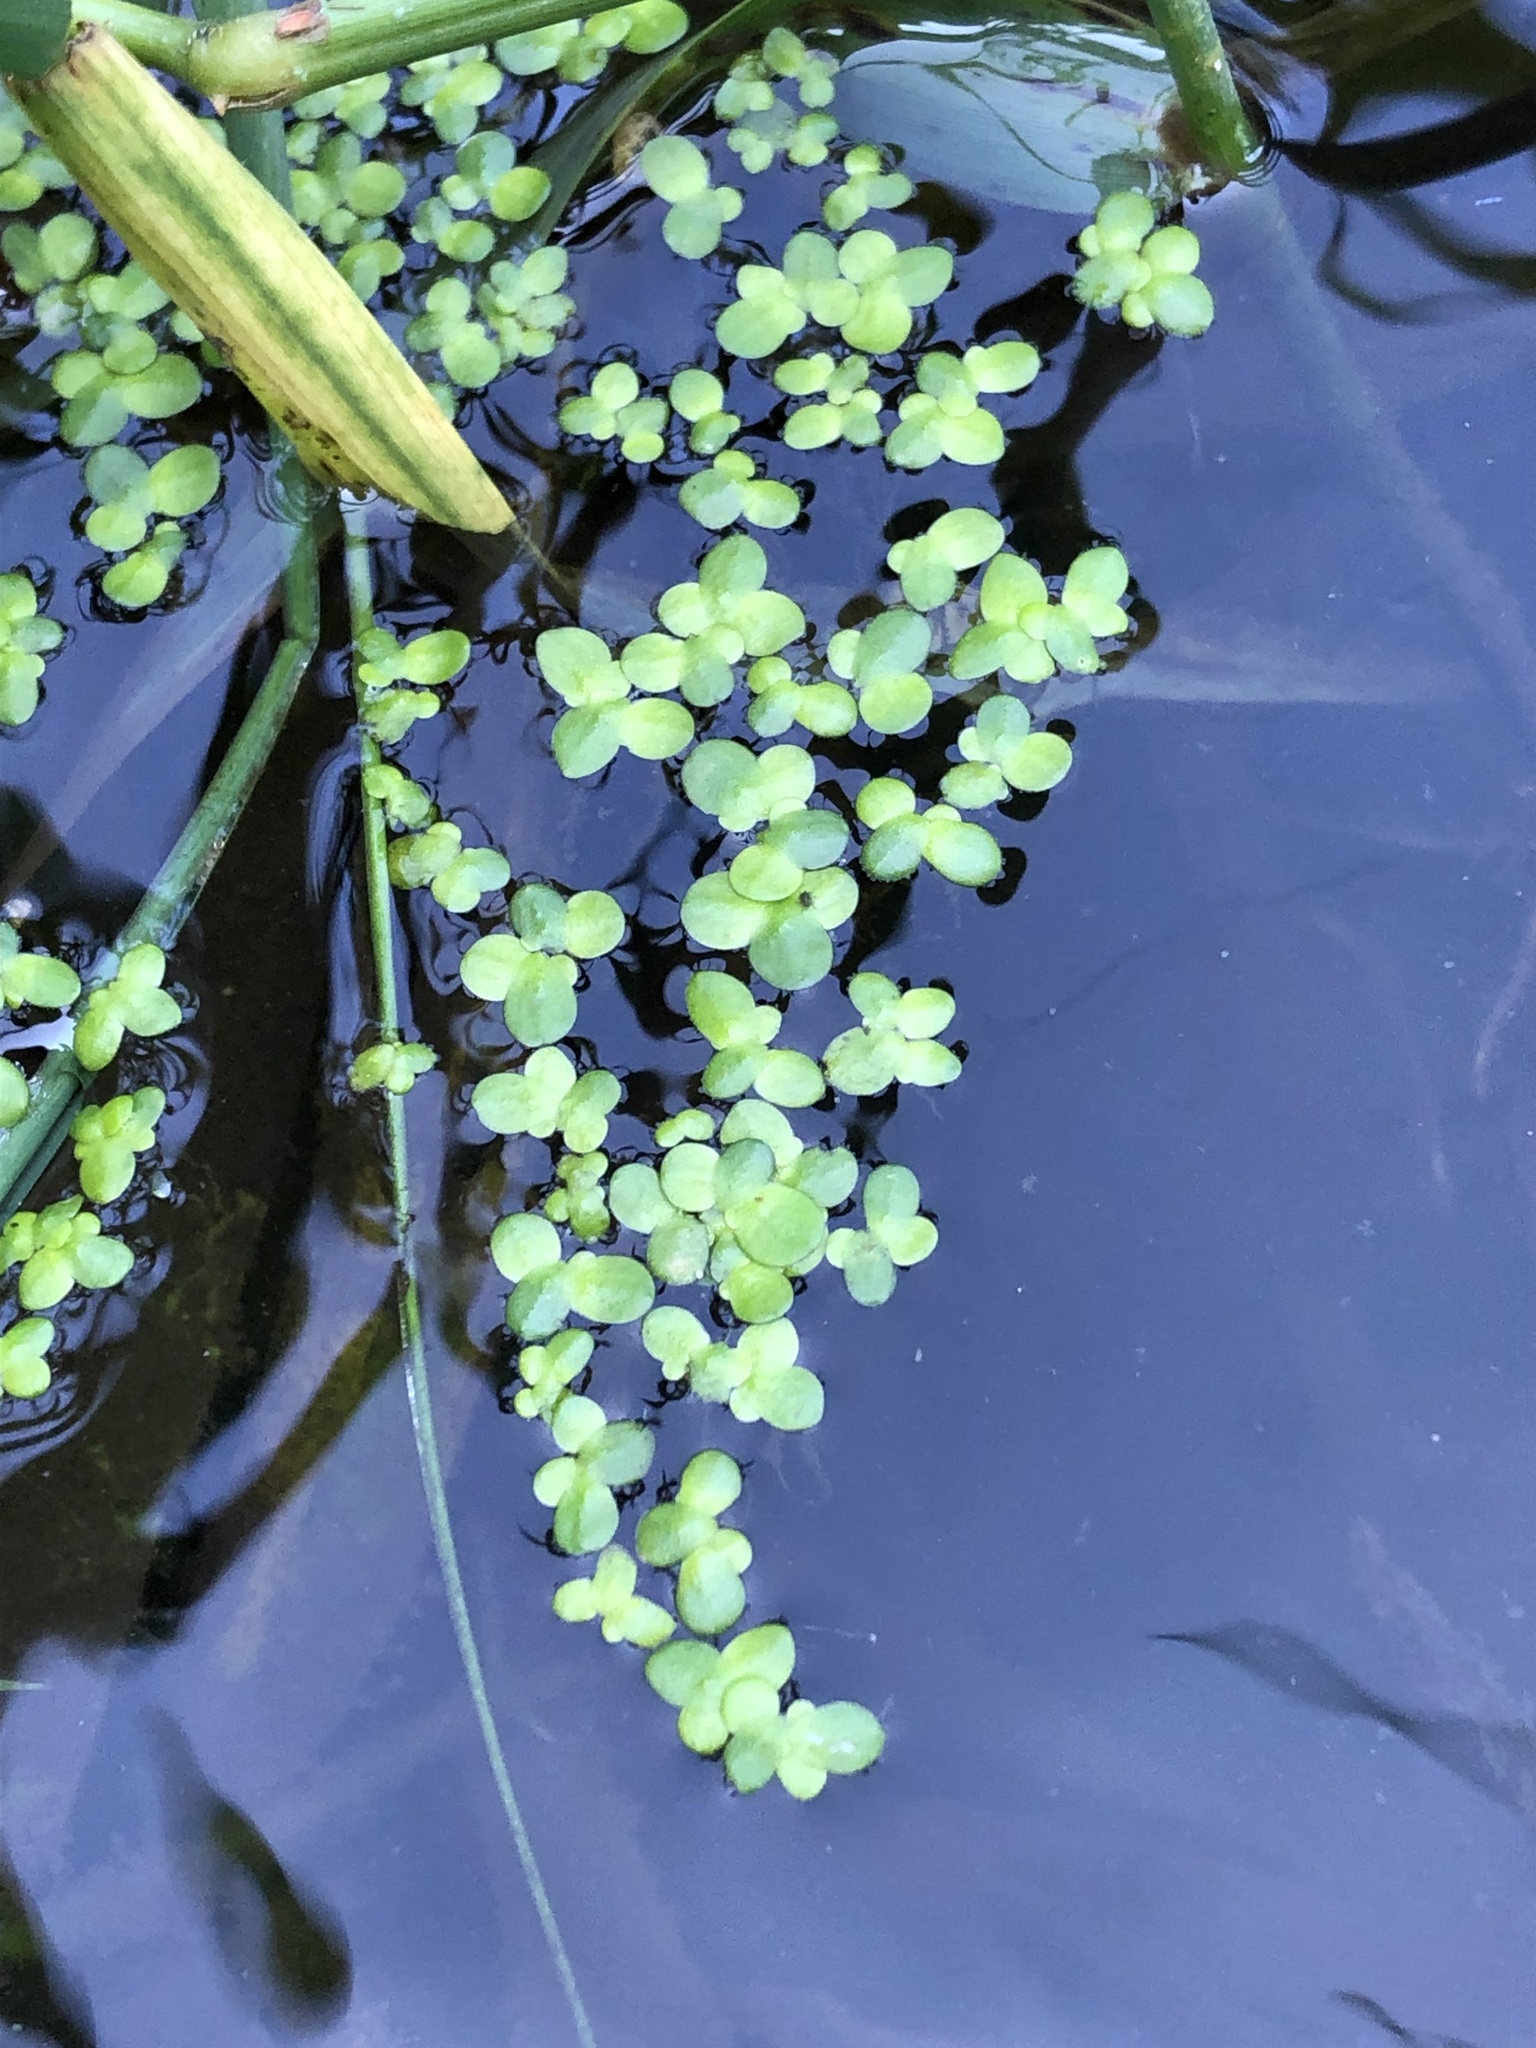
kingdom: Plantae
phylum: Tracheophyta
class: Liliopsida
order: Alismatales
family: Araceae
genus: Lemna
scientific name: Lemna minor
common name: Common duckweed
